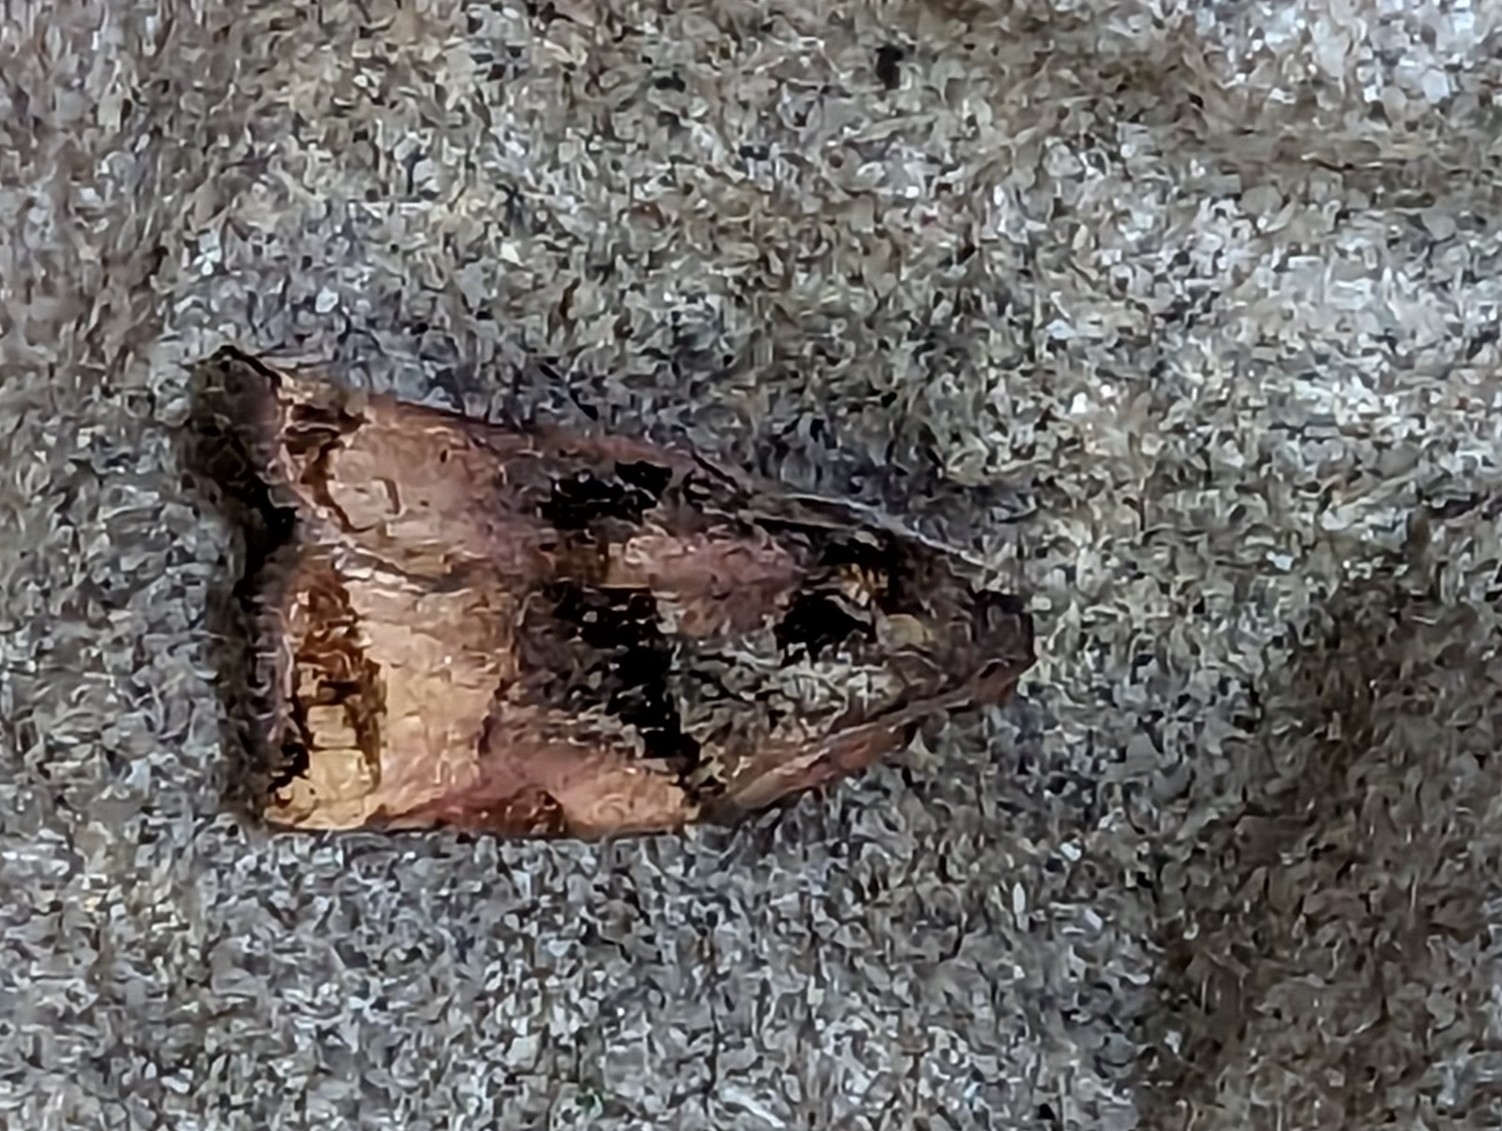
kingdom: Animalia
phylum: Arthropoda
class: Insecta
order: Lepidoptera
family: Tortricidae
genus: Archips
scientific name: Archips podana
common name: Large fruit-tree tortrix
